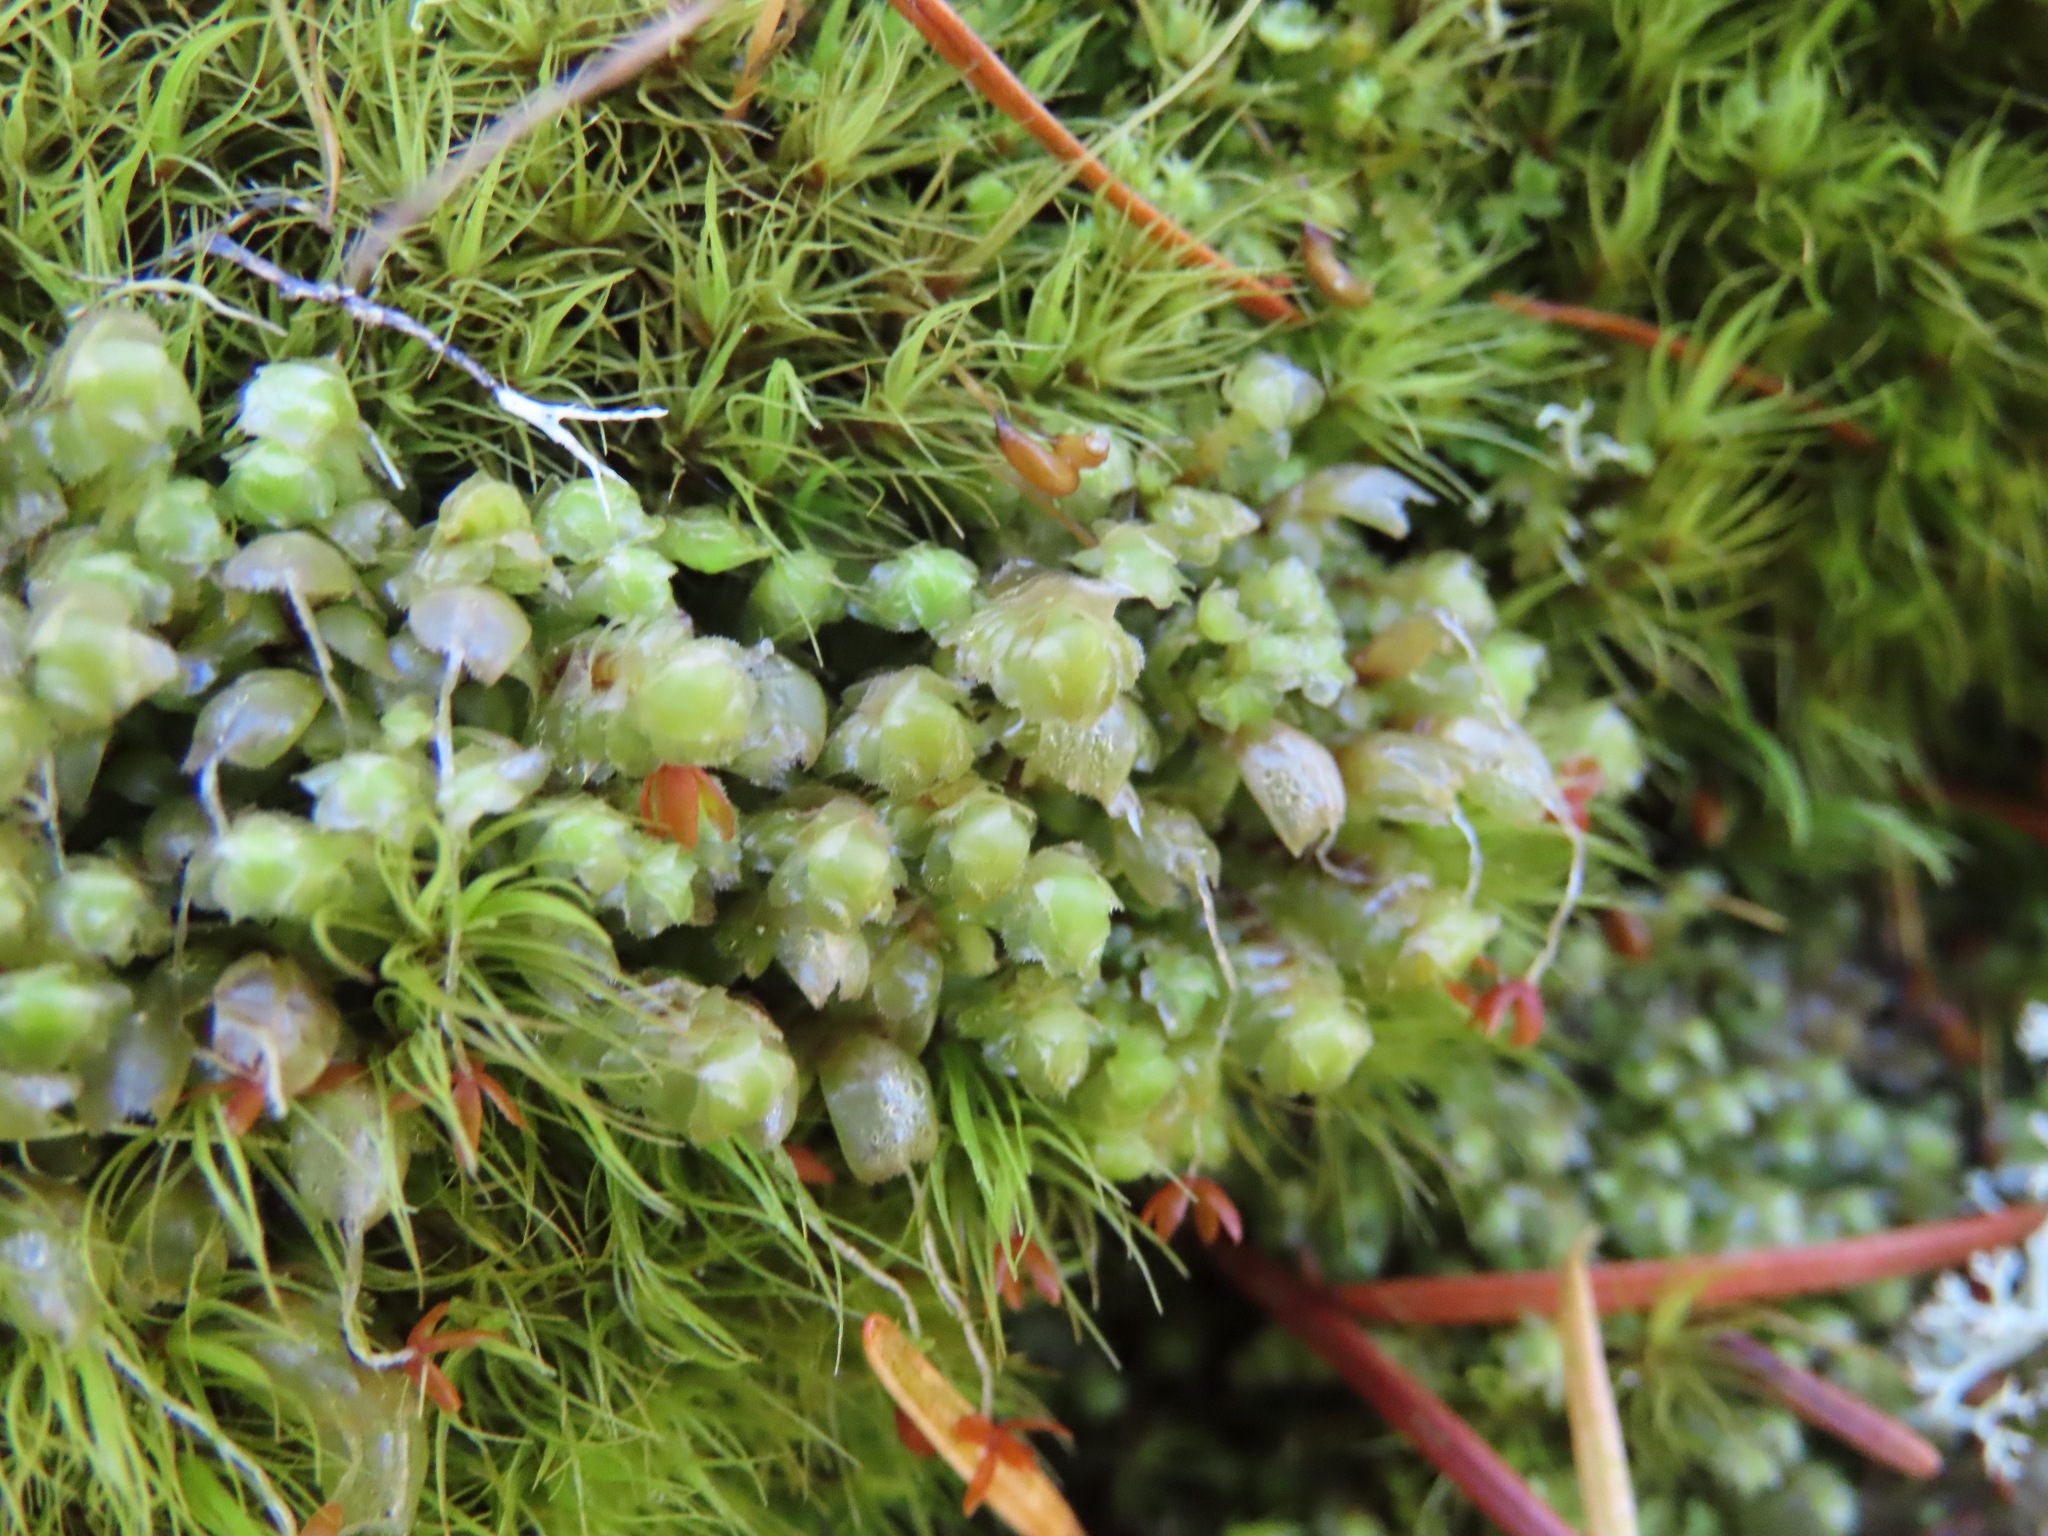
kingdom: Plantae
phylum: Marchantiophyta
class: Jungermanniopsida
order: Jungermanniales
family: Scapaniaceae
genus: Scapania
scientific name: Scapania bolanderi
